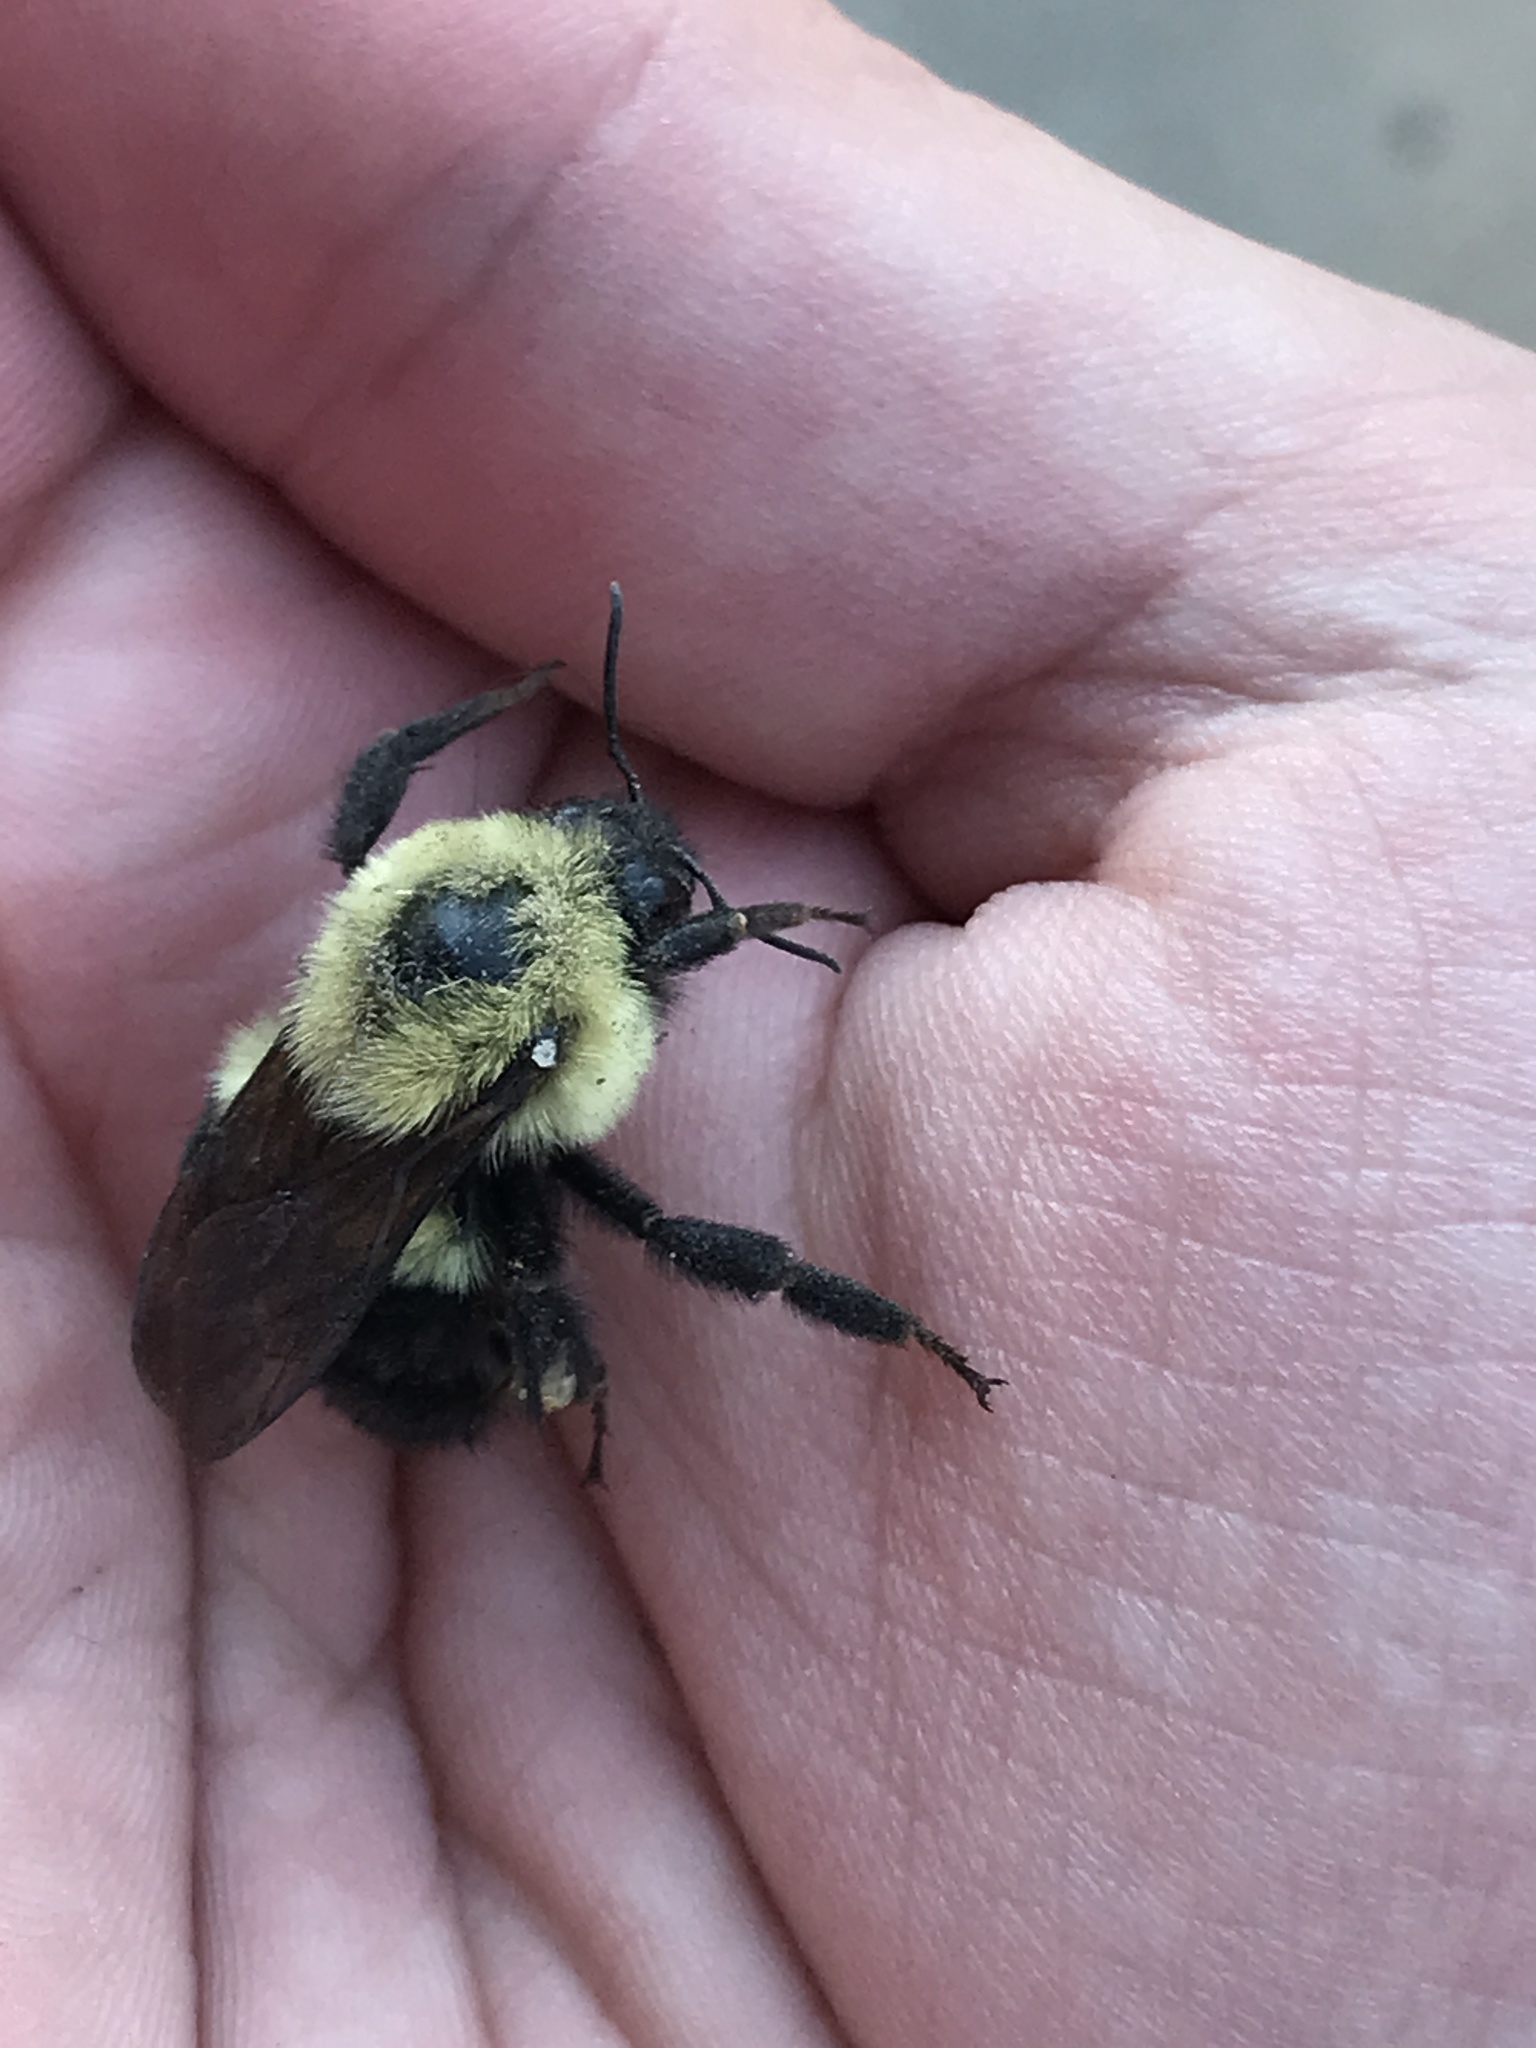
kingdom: Animalia
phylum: Arthropoda
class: Insecta
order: Hymenoptera
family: Apidae
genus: Bombus
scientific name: Bombus bimaculatus
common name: Two-spotted bumble bee
